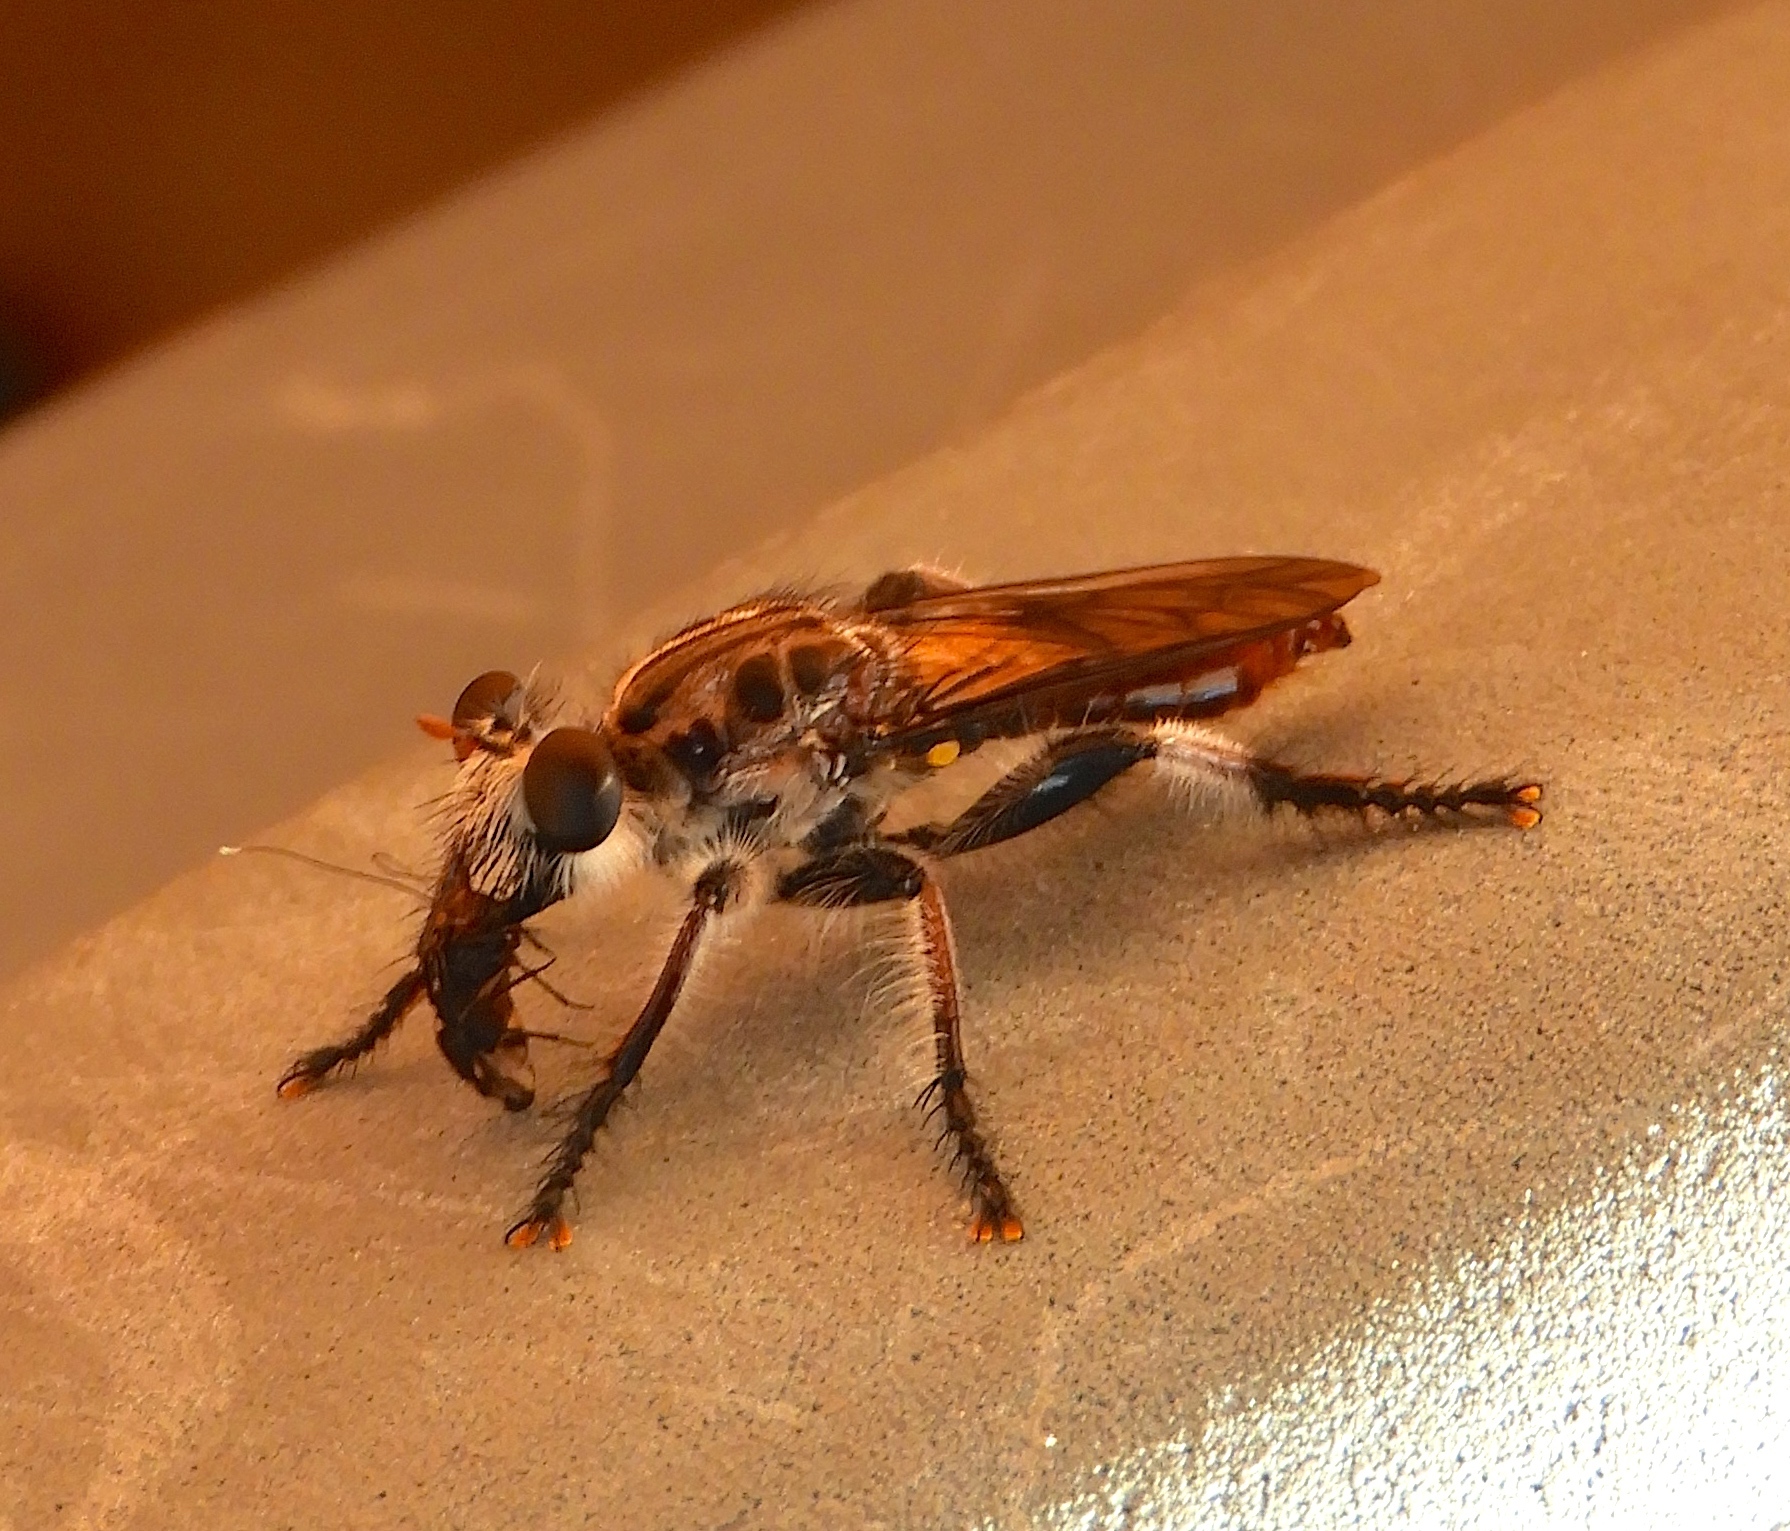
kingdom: Animalia
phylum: Arthropoda
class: Insecta
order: Diptera
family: Asilidae
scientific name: Asilidae
